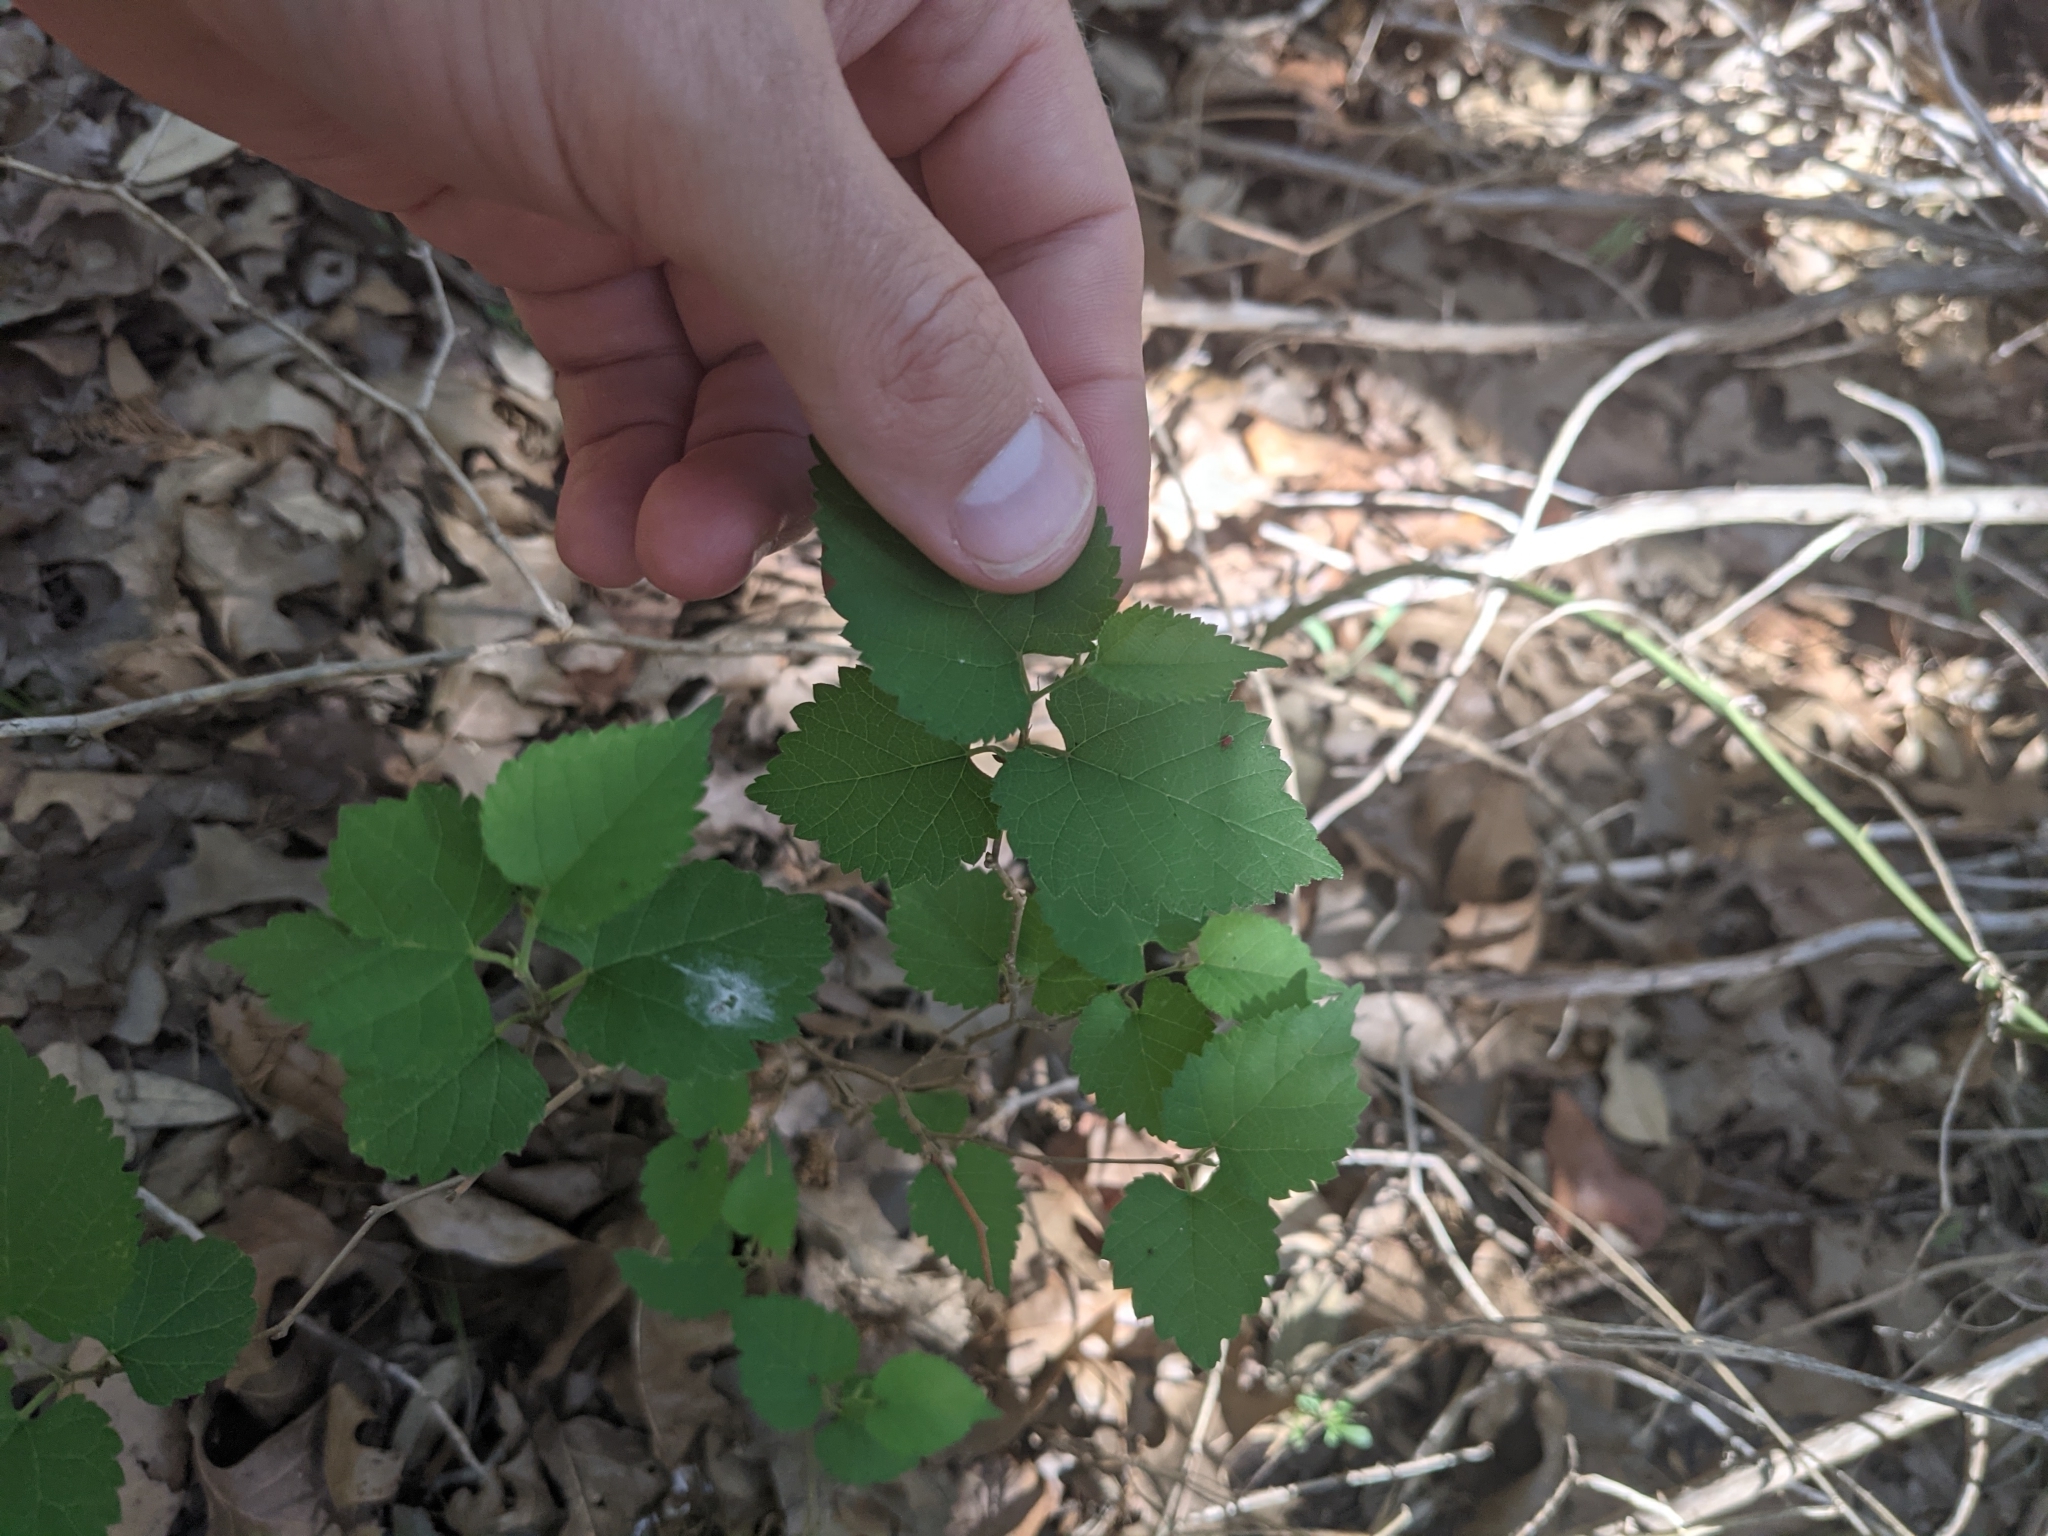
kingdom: Plantae
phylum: Tracheophyta
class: Magnoliopsida
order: Rosales
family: Moraceae
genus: Morus
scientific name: Morus microphylla
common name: Mexican mulberry
